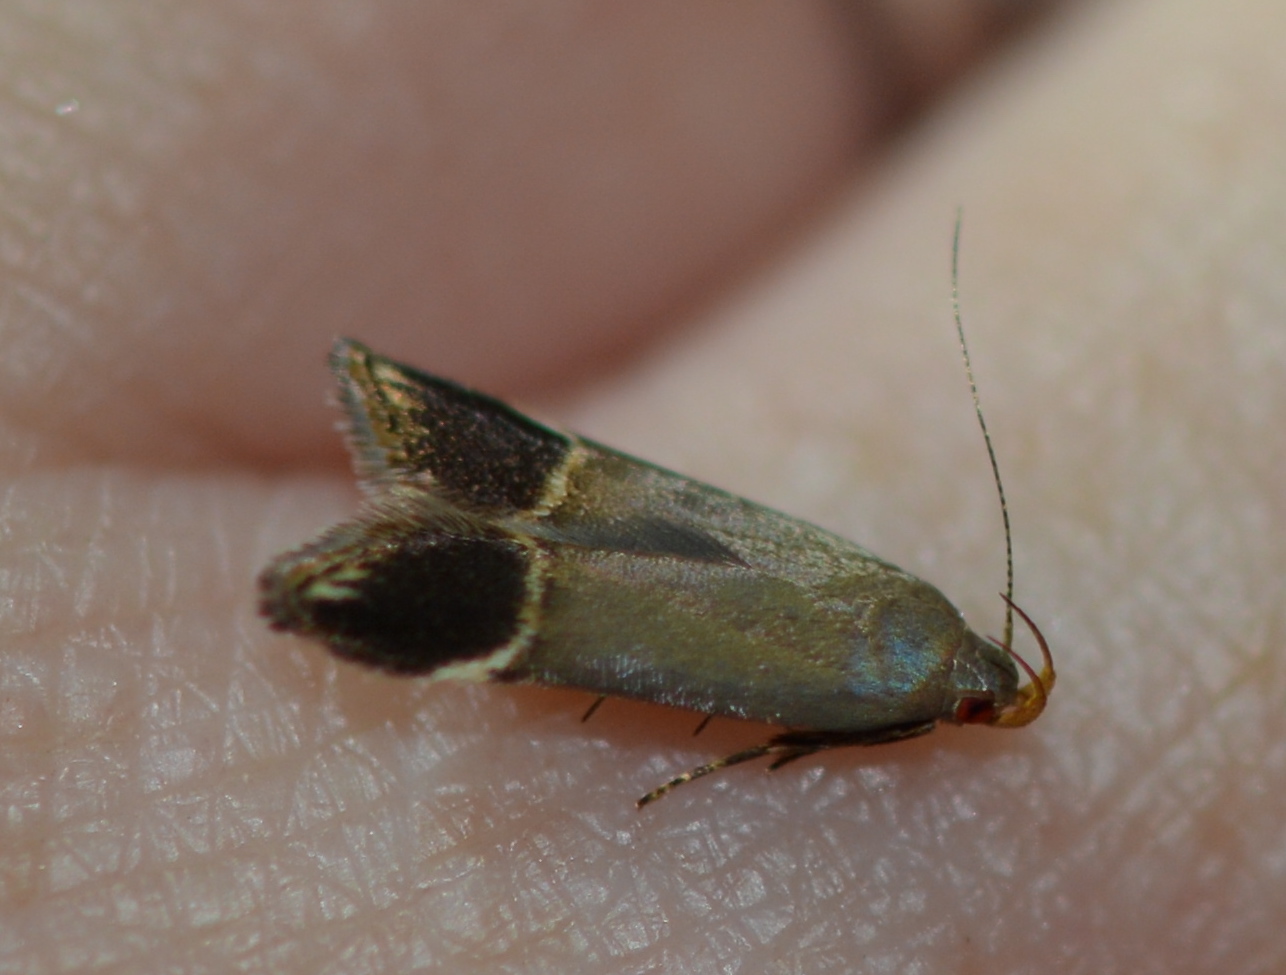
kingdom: Animalia
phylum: Arthropoda
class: Insecta
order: Lepidoptera
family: Gelechiidae
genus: Anacampsis
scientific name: Anacampsis tristrigella
